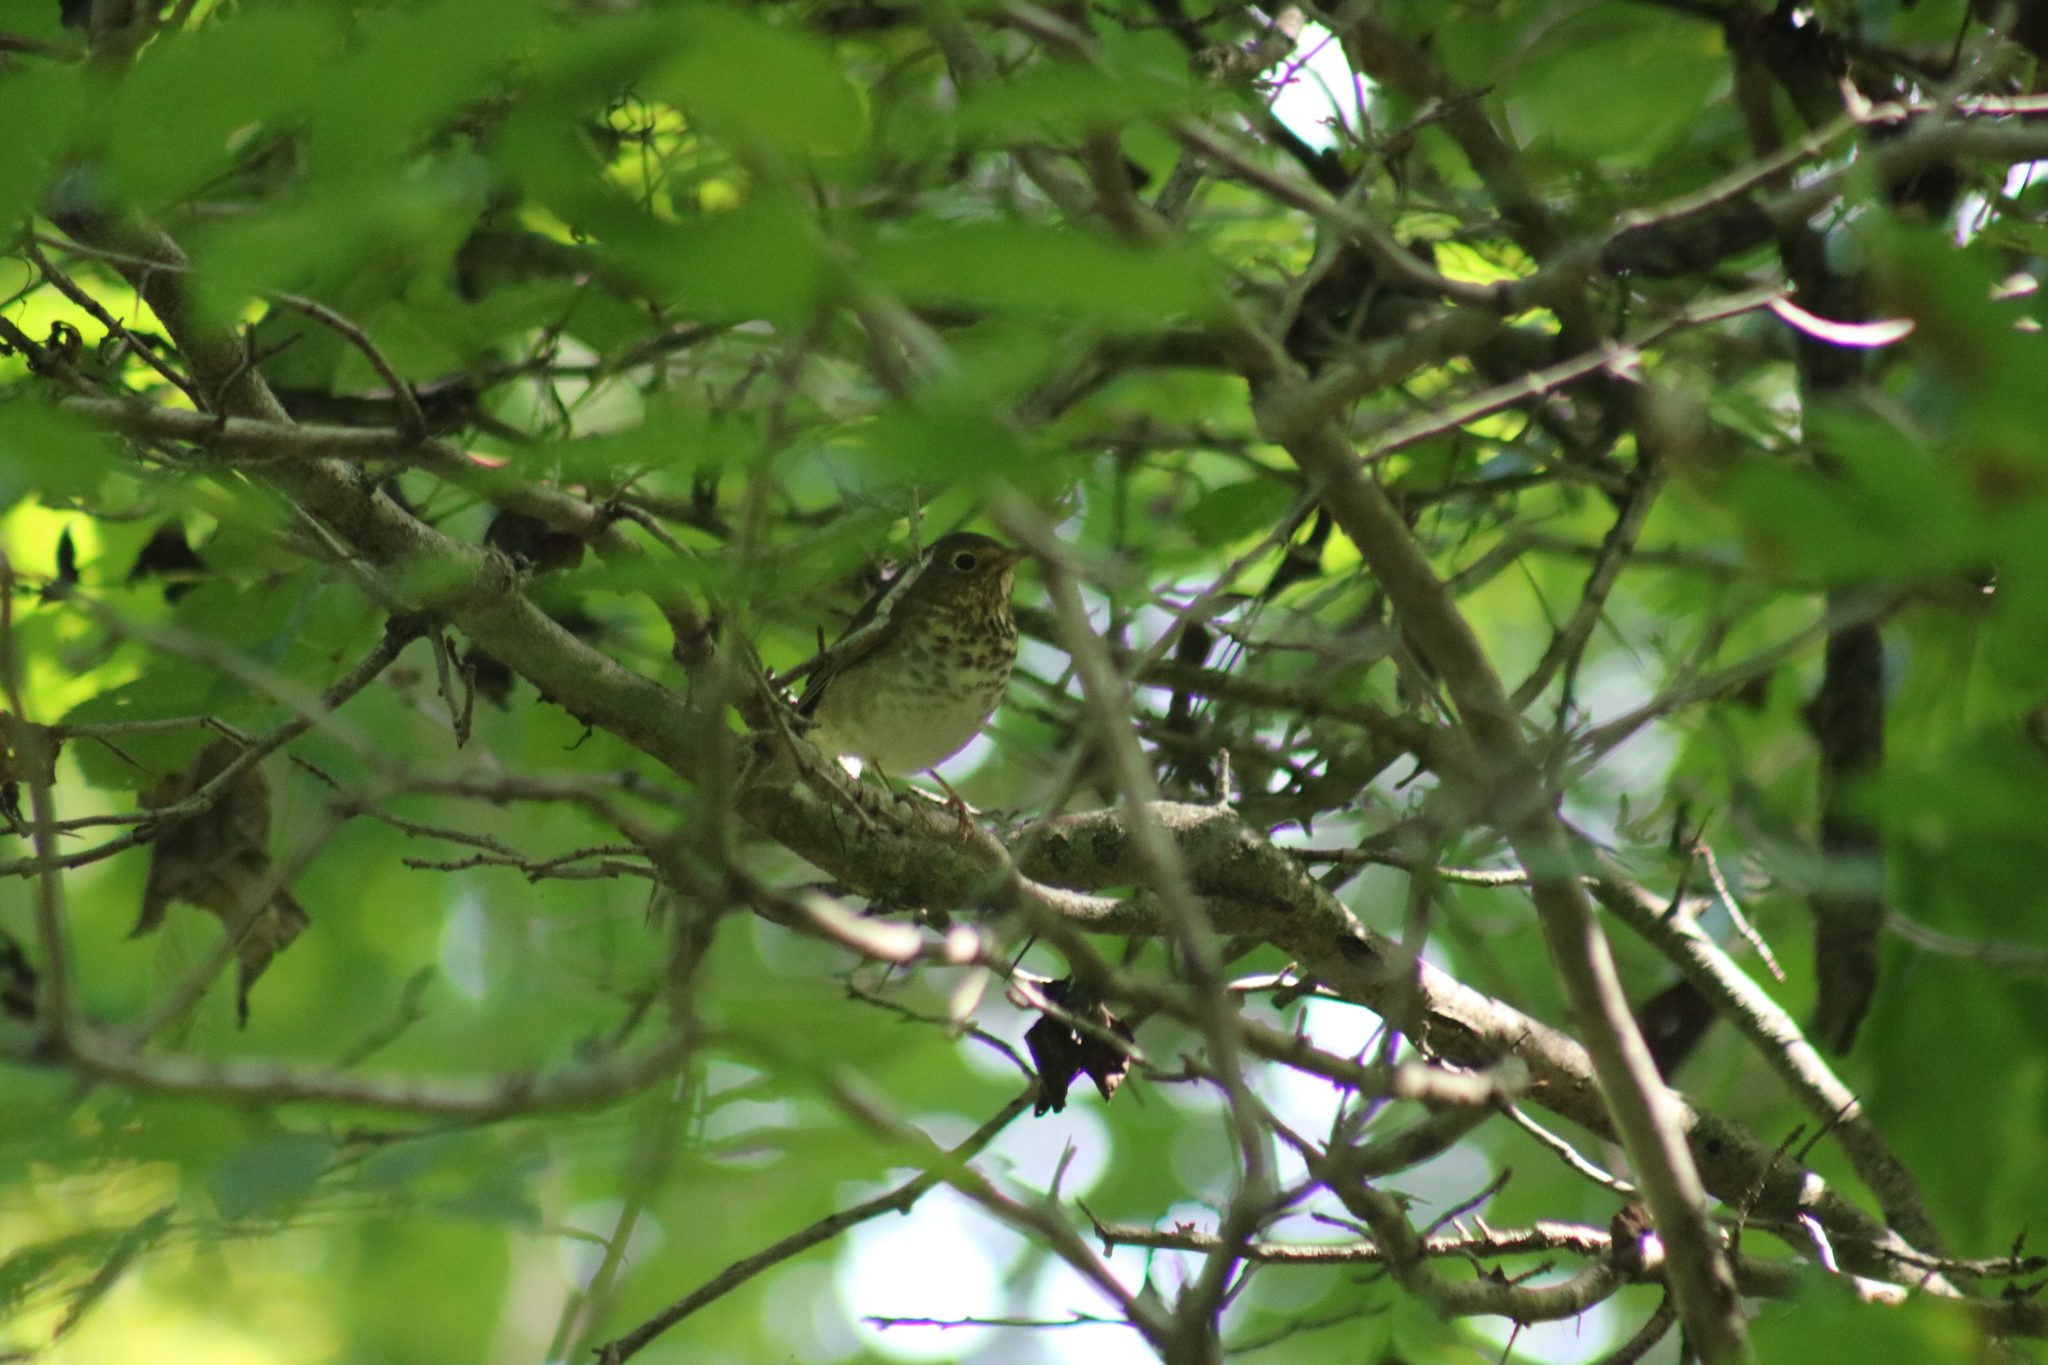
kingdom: Animalia
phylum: Chordata
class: Aves
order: Passeriformes
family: Turdidae
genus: Catharus
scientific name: Catharus ustulatus
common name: Swainson's thrush
